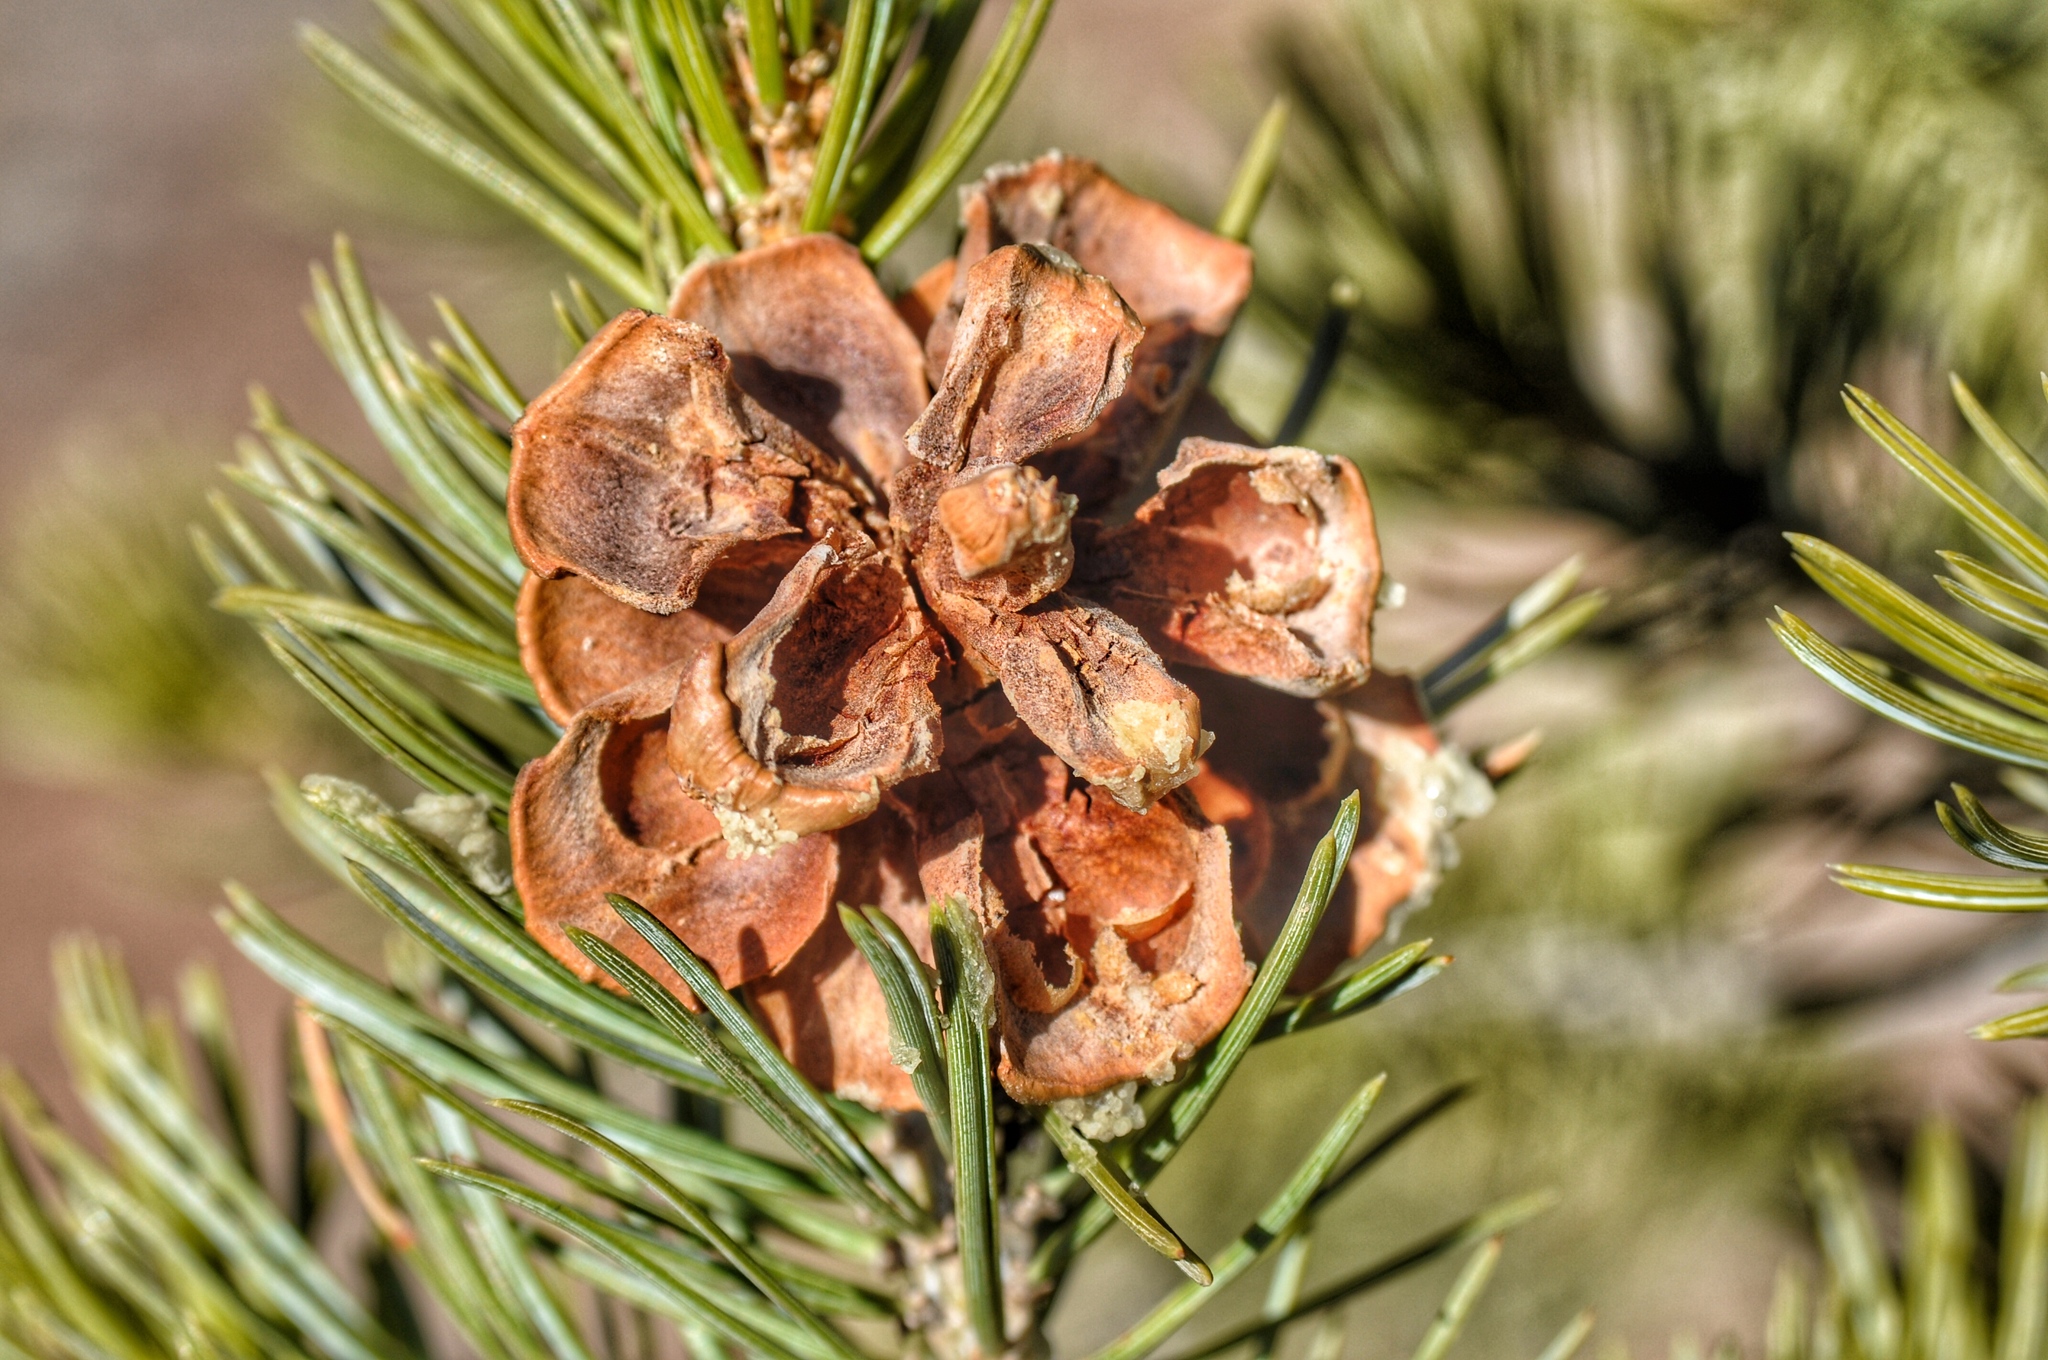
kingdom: Plantae
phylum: Tracheophyta
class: Pinopsida
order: Pinales
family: Pinaceae
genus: Pinus
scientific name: Pinus edulis
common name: Colorado pinyon
